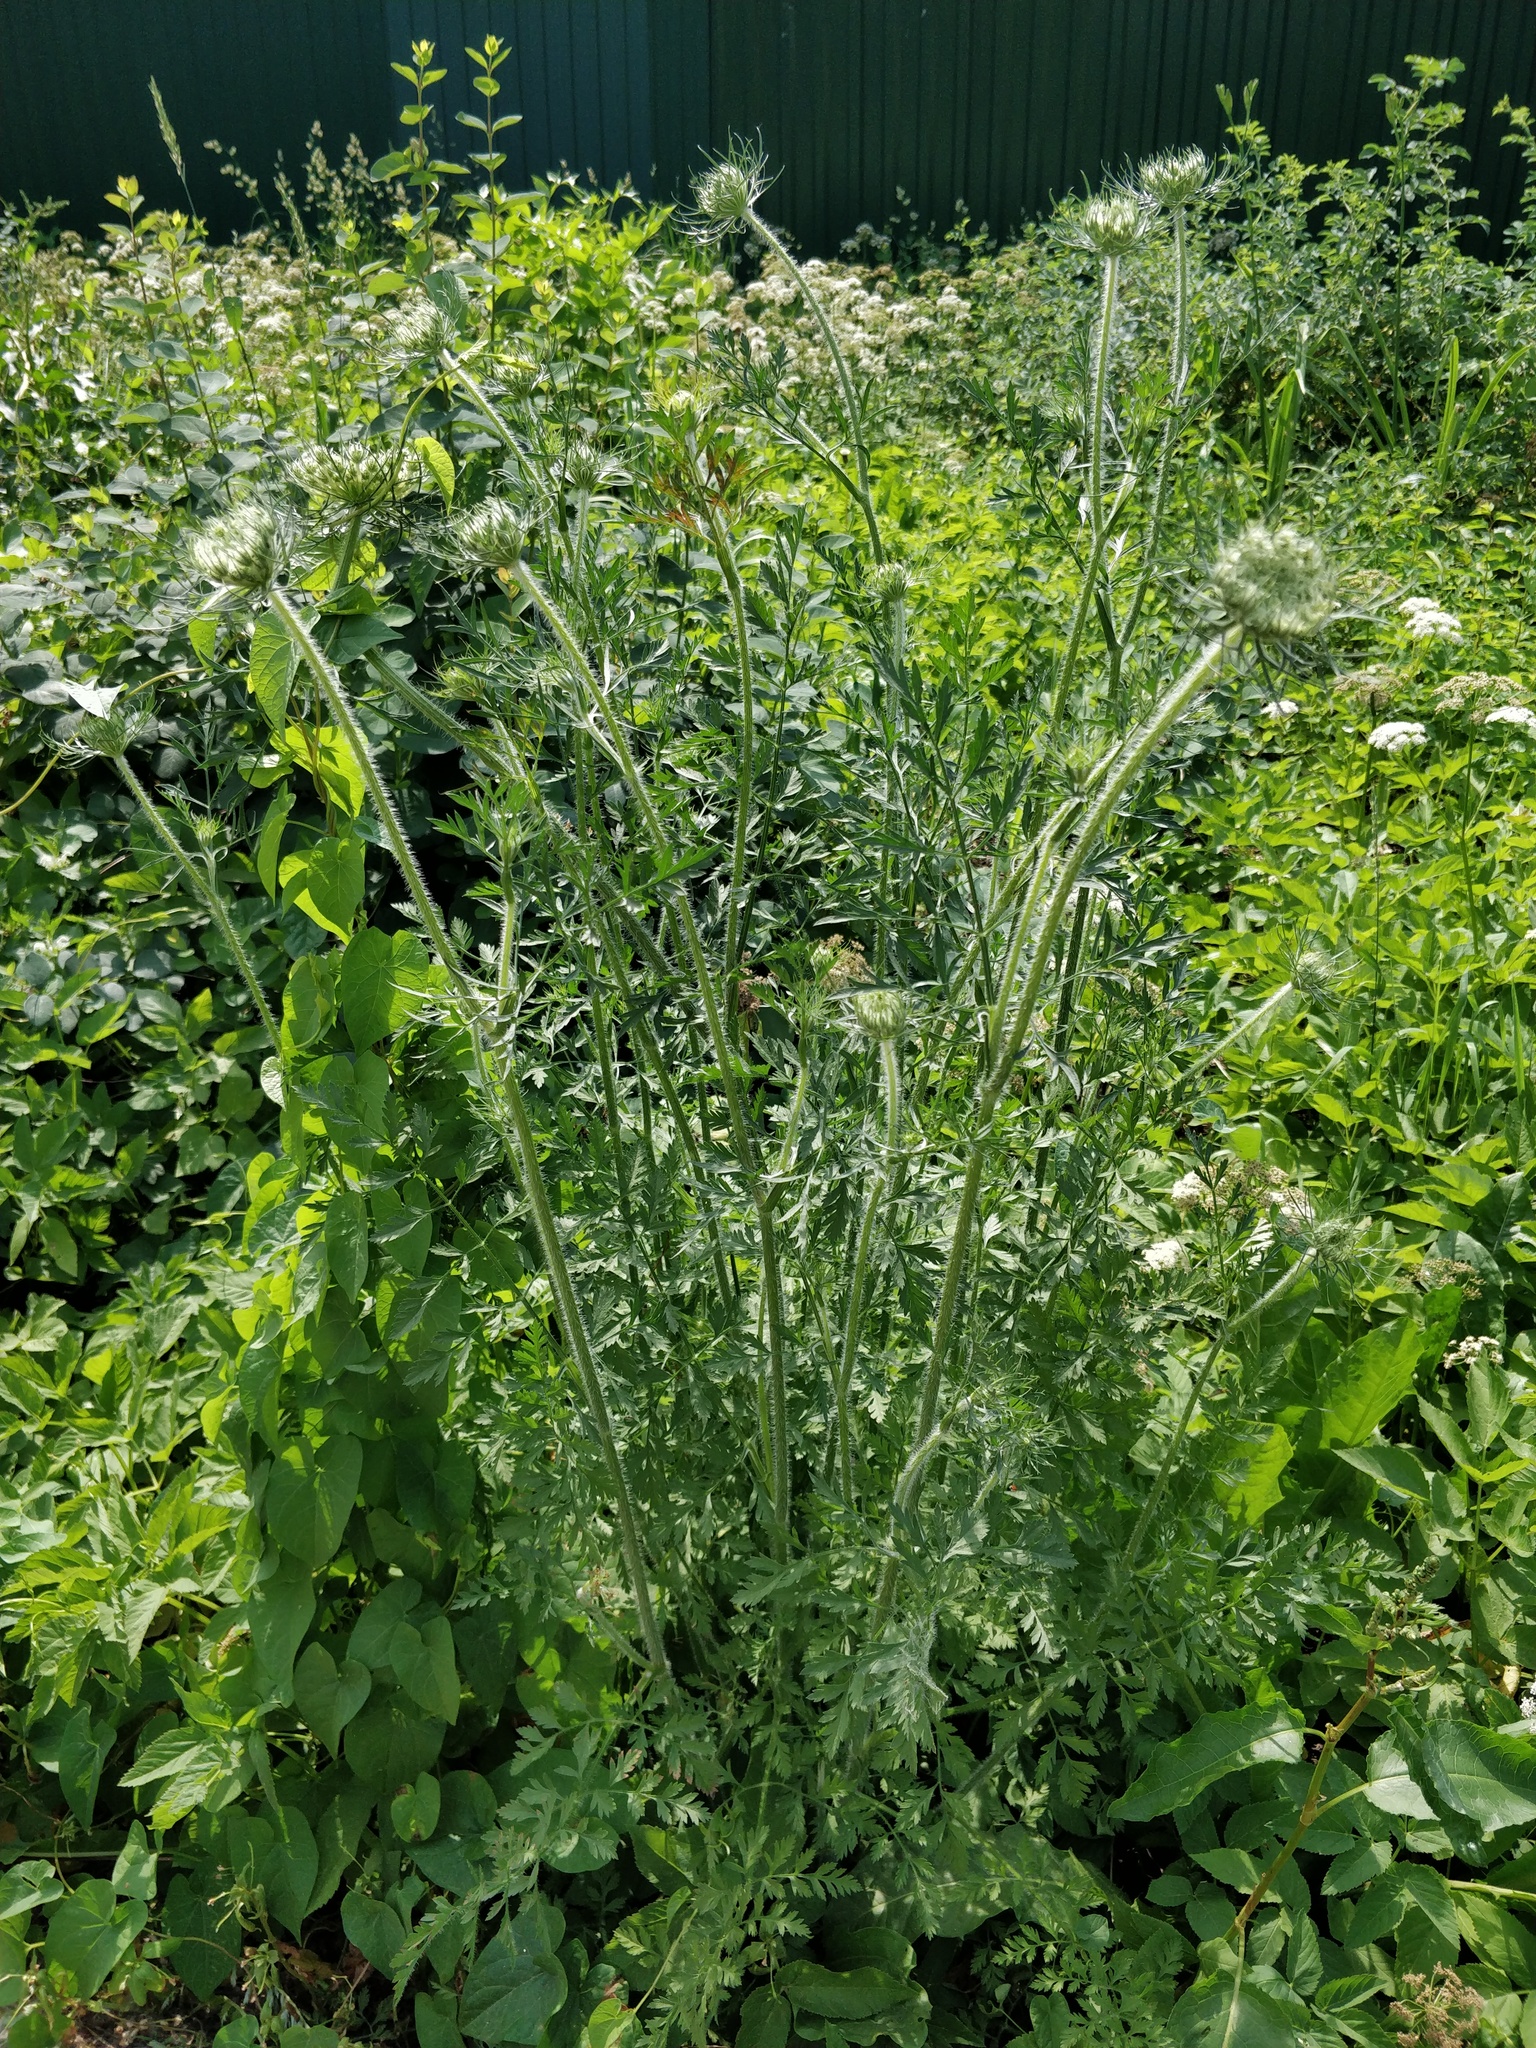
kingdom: Plantae
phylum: Tracheophyta
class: Magnoliopsida
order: Apiales
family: Apiaceae
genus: Daucus
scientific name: Daucus carota
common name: Wild carrot
